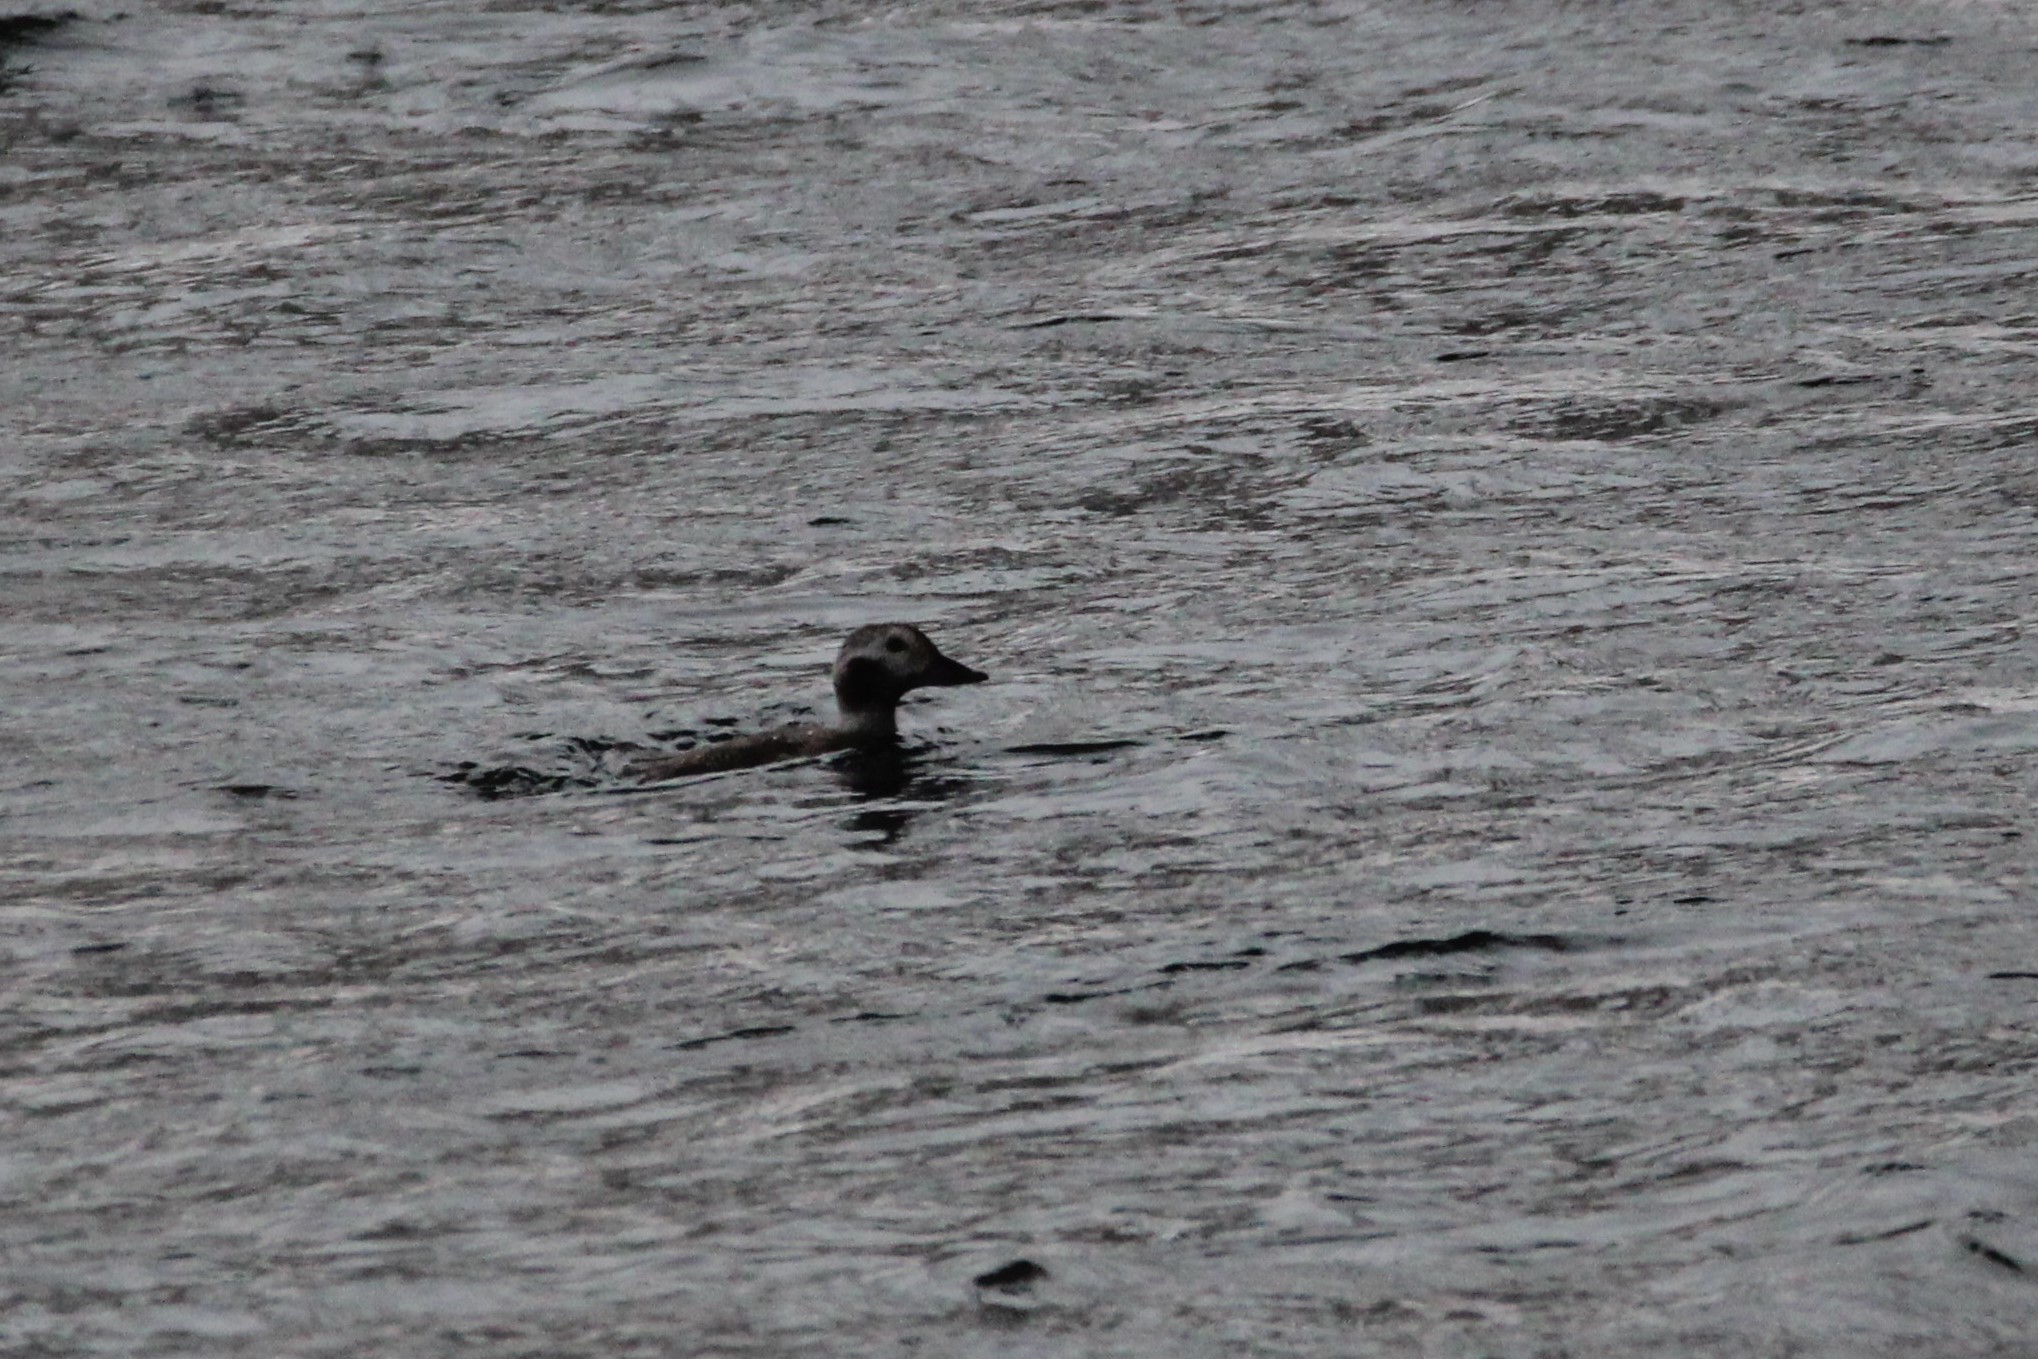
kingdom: Animalia
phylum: Chordata
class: Aves
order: Anseriformes
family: Anatidae
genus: Clangula
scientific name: Clangula hyemalis
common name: Long-tailed duck
